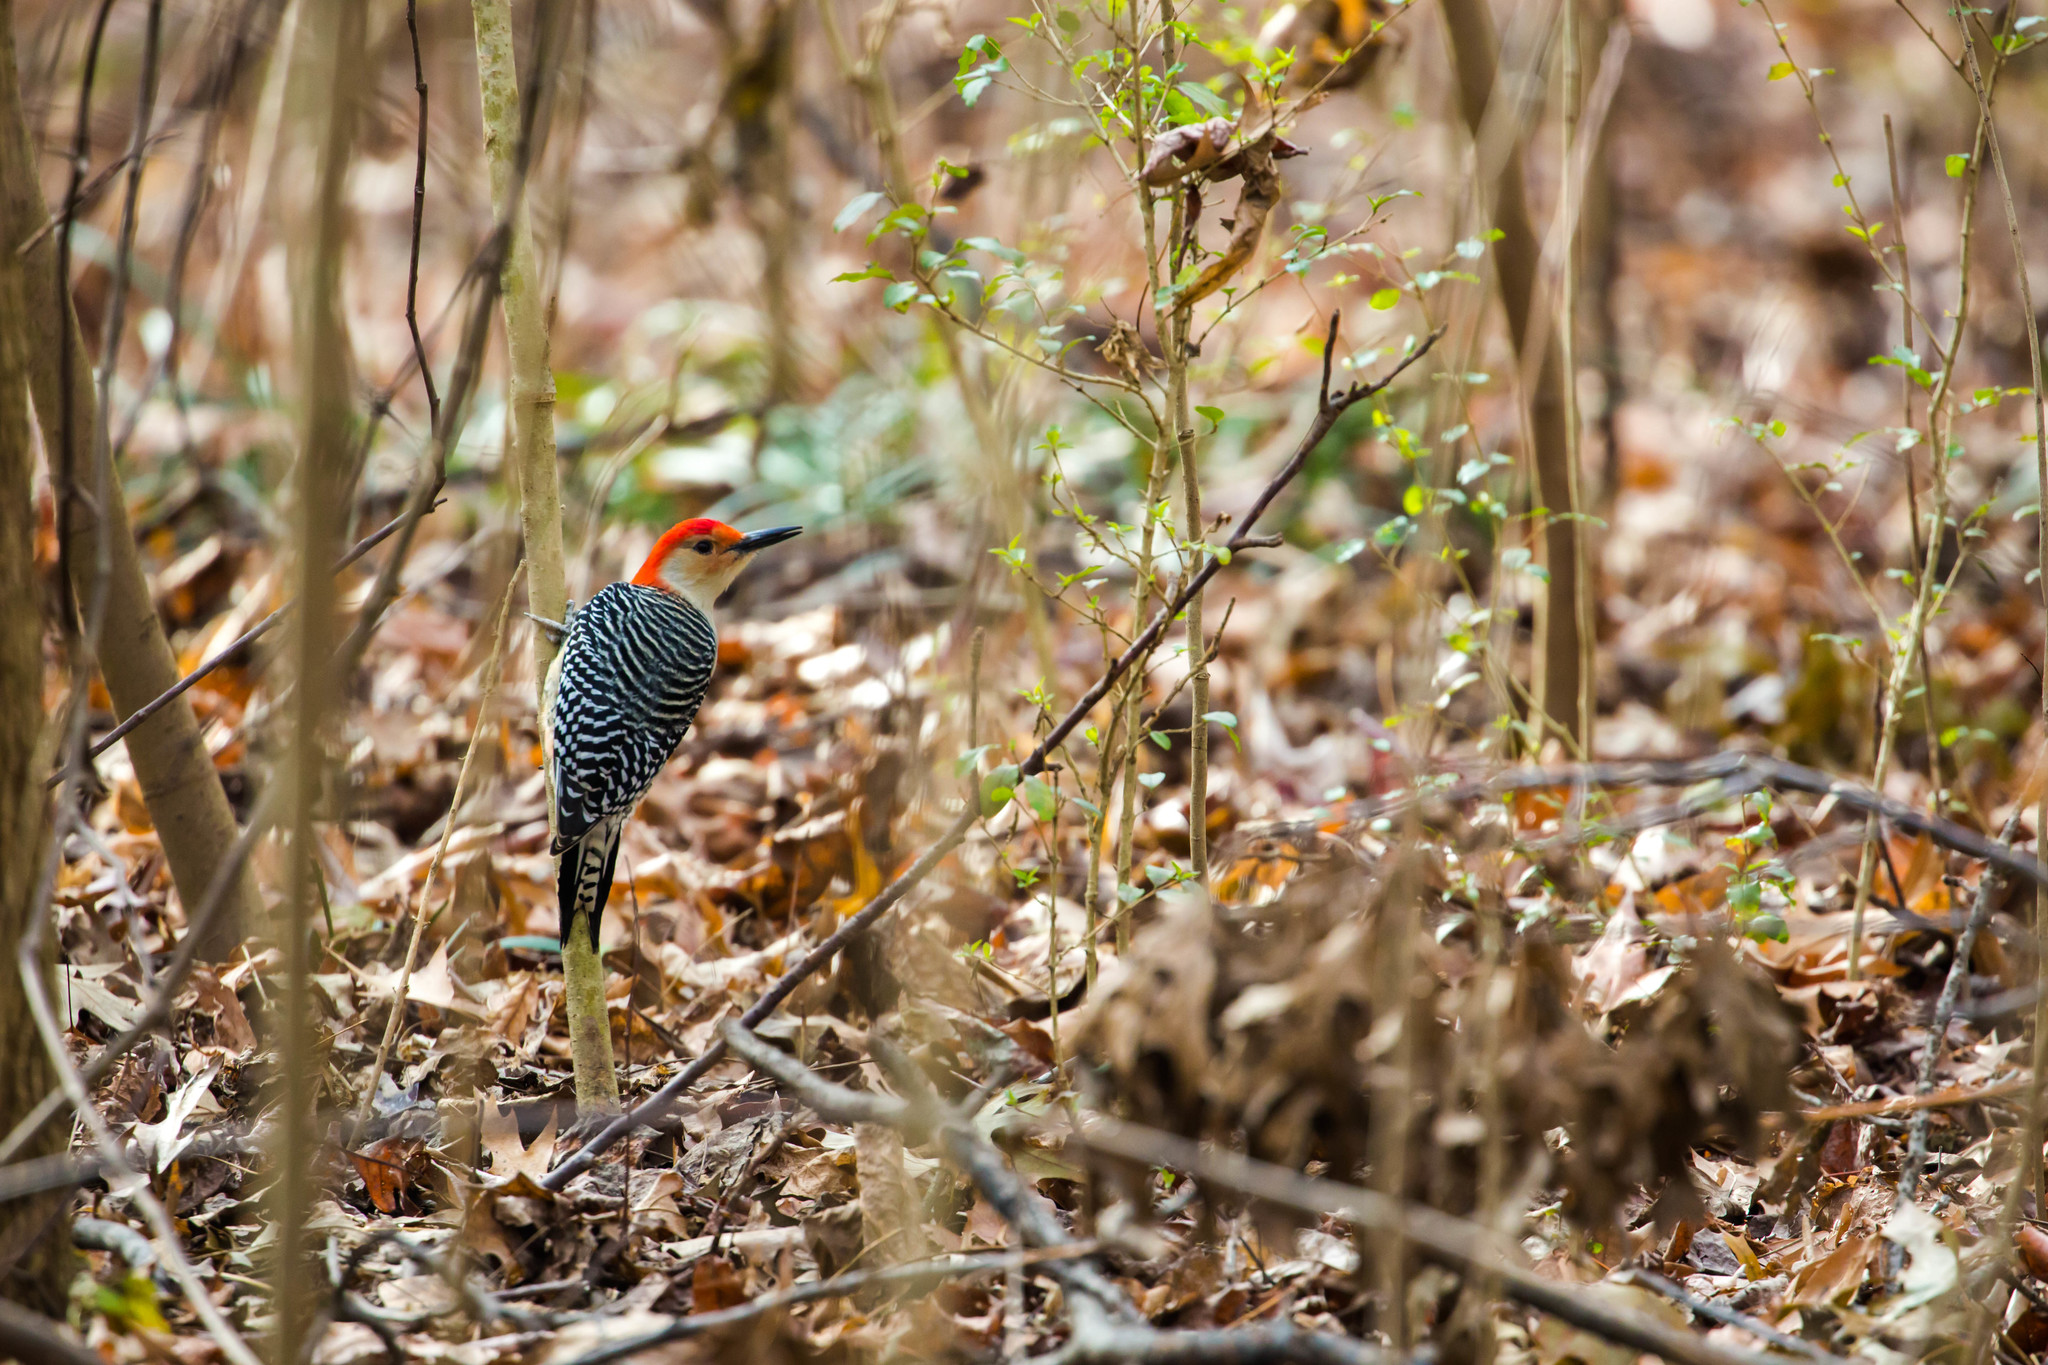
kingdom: Animalia
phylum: Chordata
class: Aves
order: Piciformes
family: Picidae
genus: Melanerpes
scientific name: Melanerpes carolinus
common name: Red-bellied woodpecker
